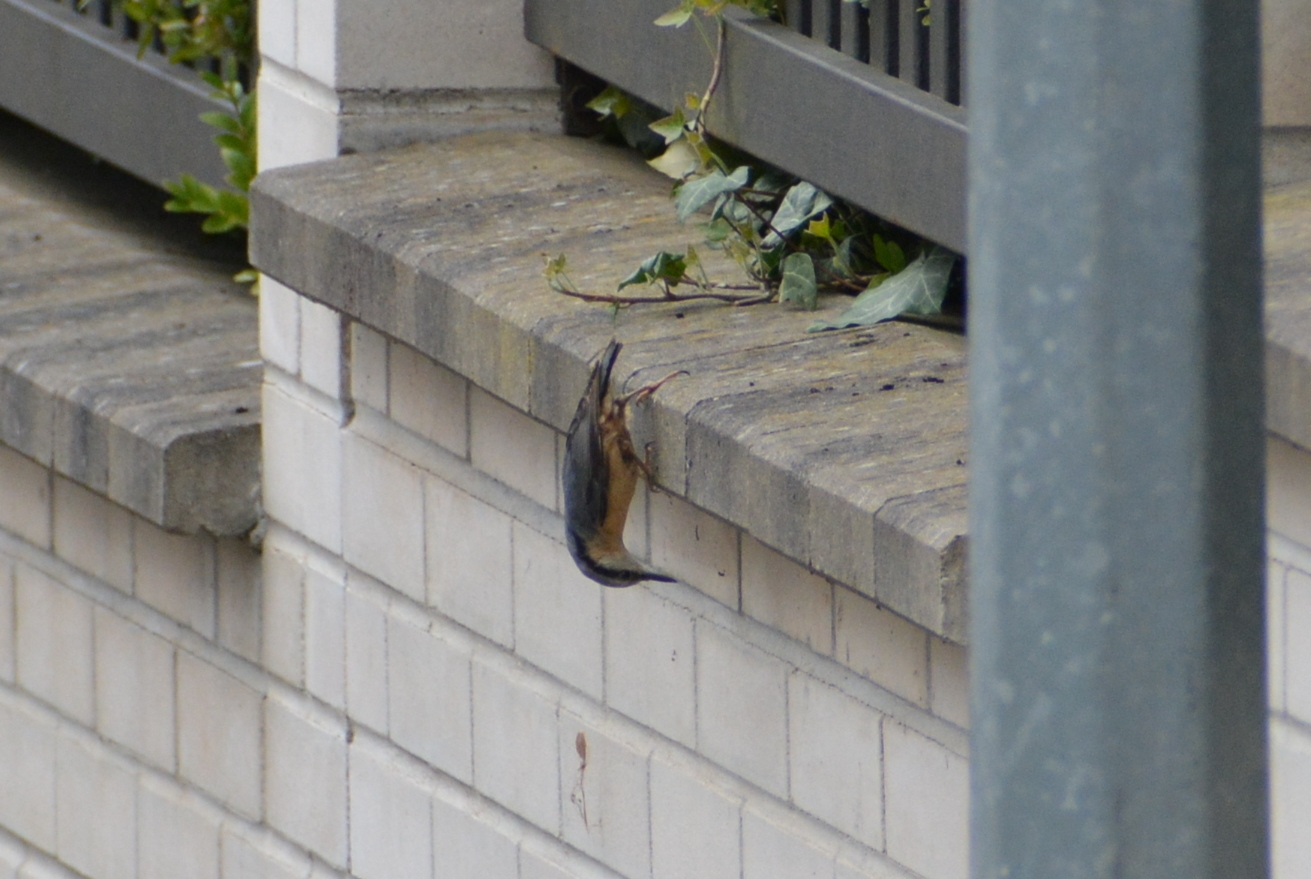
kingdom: Animalia
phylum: Chordata
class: Aves
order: Passeriformes
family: Sittidae
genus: Sitta
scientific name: Sitta europaea
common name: Eurasian nuthatch
